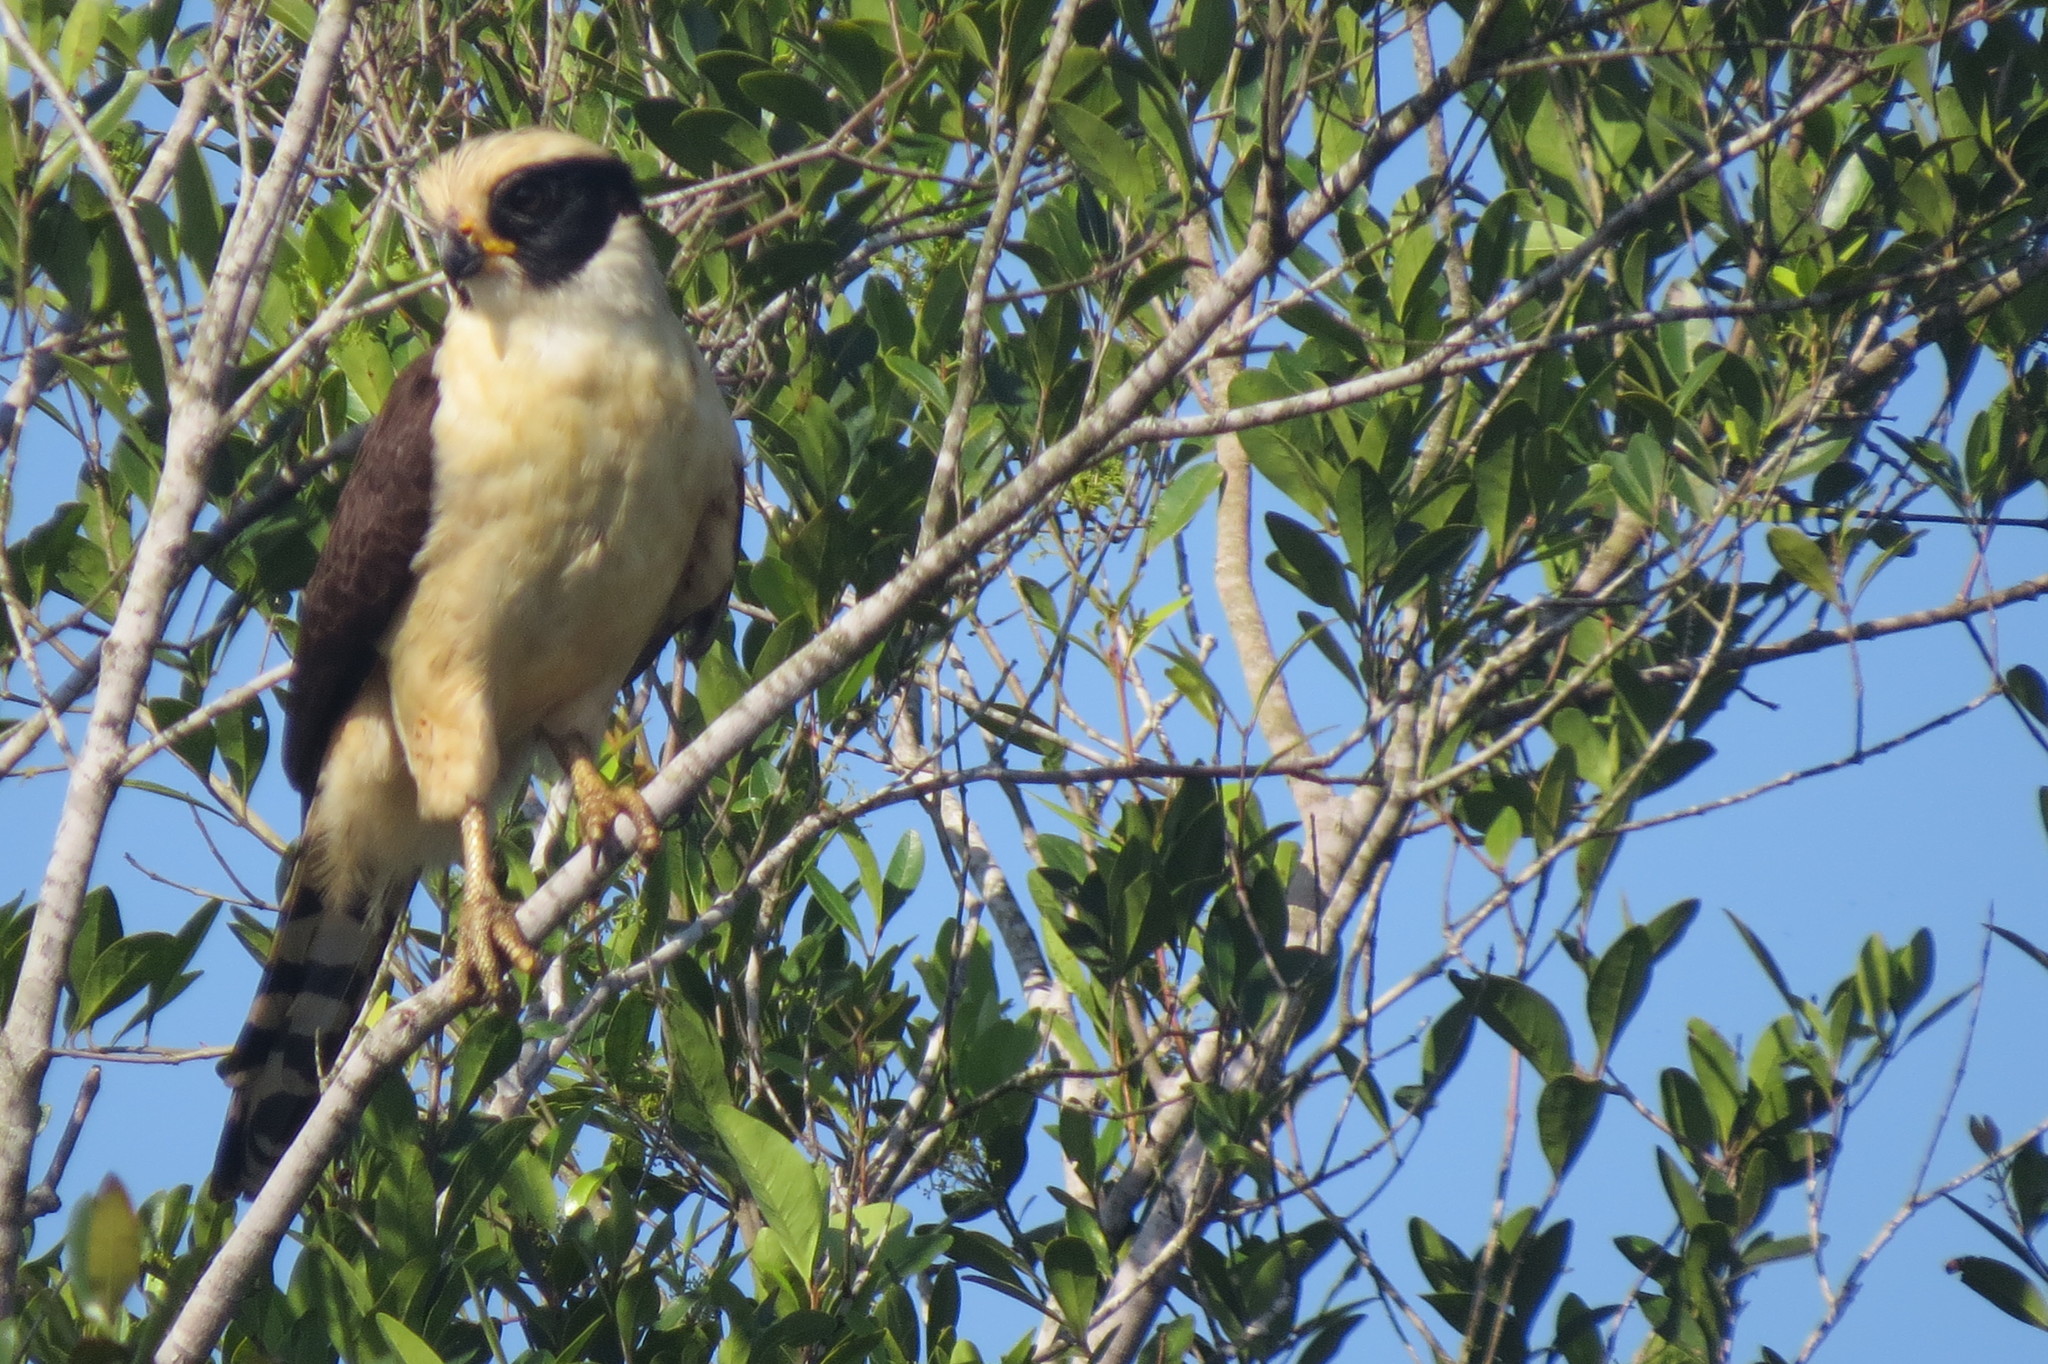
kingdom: Animalia
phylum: Chordata
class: Aves
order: Falconiformes
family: Falconidae
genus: Herpetotheres
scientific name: Herpetotheres cachinnans
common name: Laughing falcon
